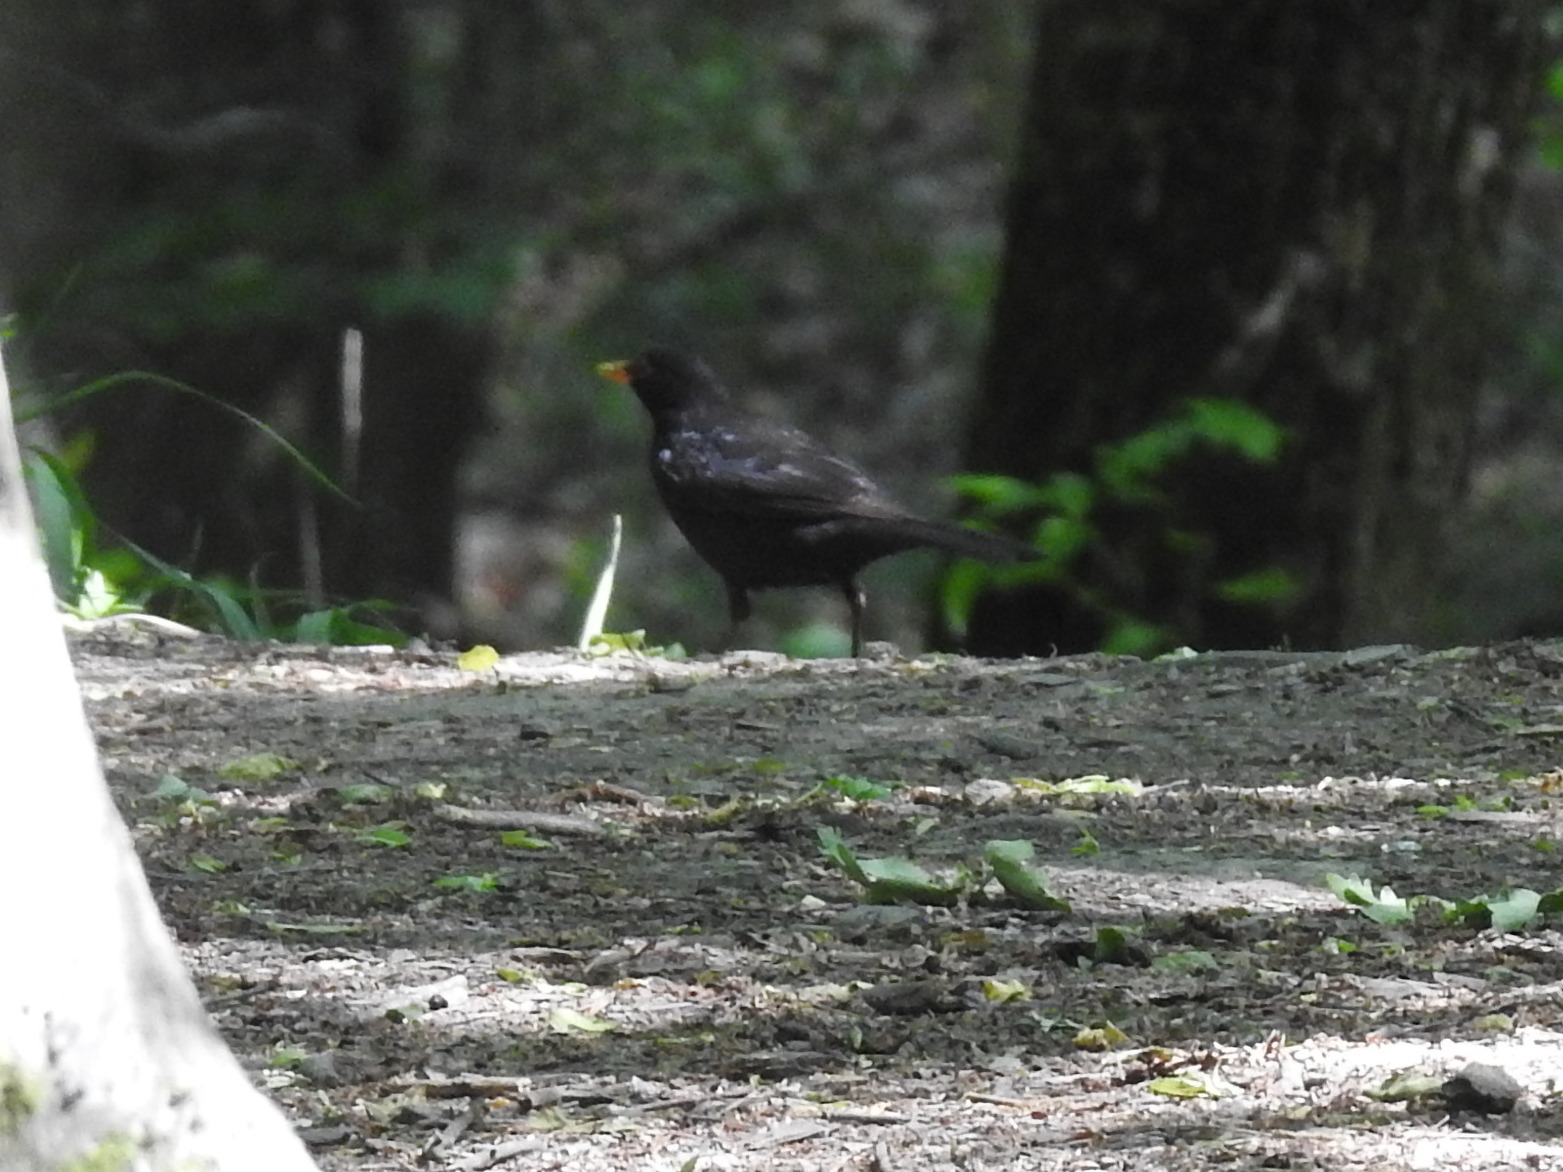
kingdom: Animalia
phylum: Chordata
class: Aves
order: Passeriformes
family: Turdidae
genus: Turdus
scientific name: Turdus merula
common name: Common blackbird
